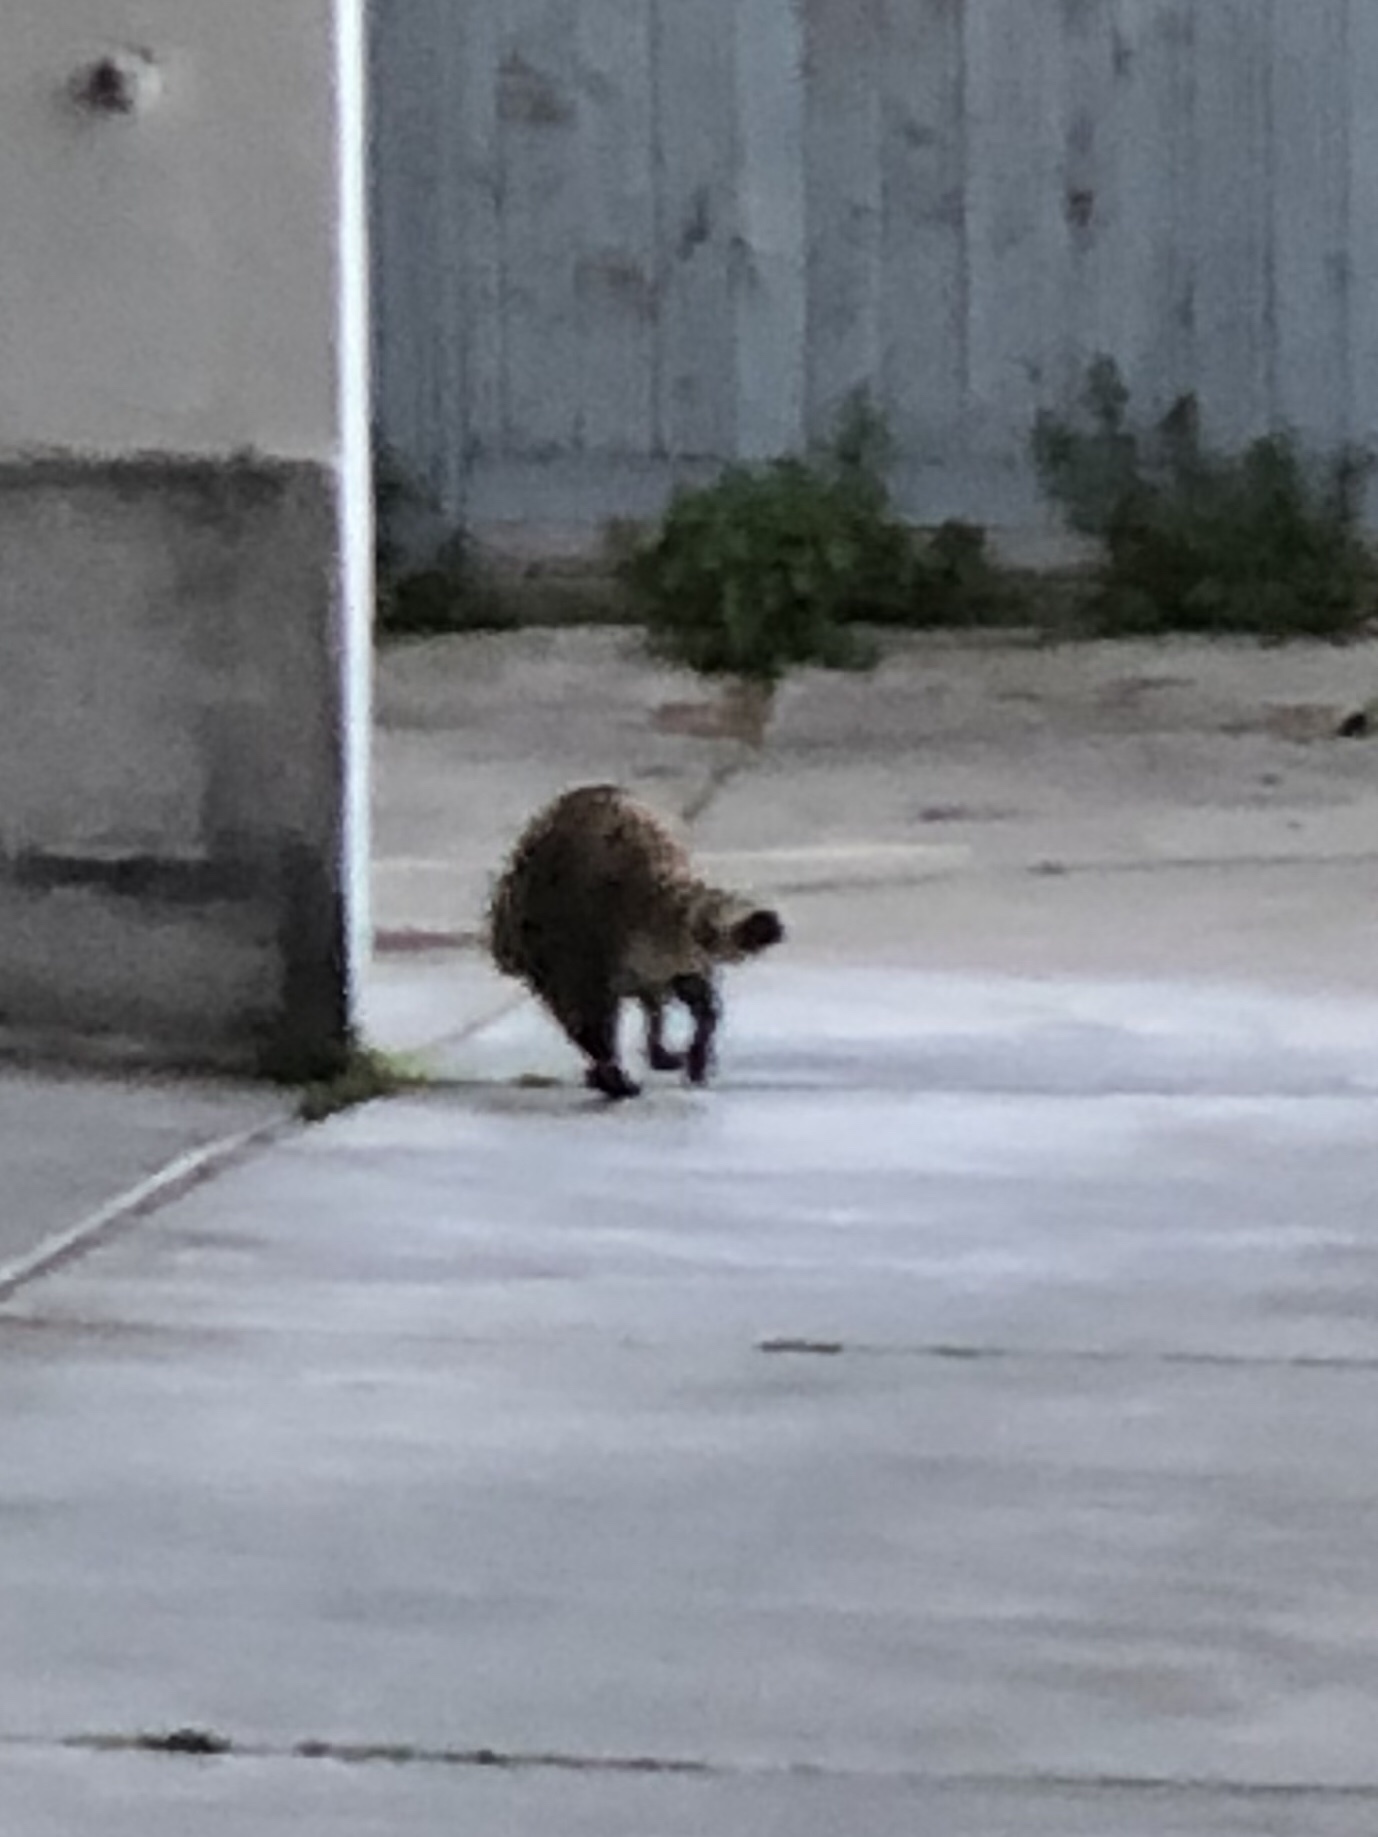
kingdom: Animalia
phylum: Chordata
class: Mammalia
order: Carnivora
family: Procyonidae
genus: Procyon
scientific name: Procyon lotor
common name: Raccoon
